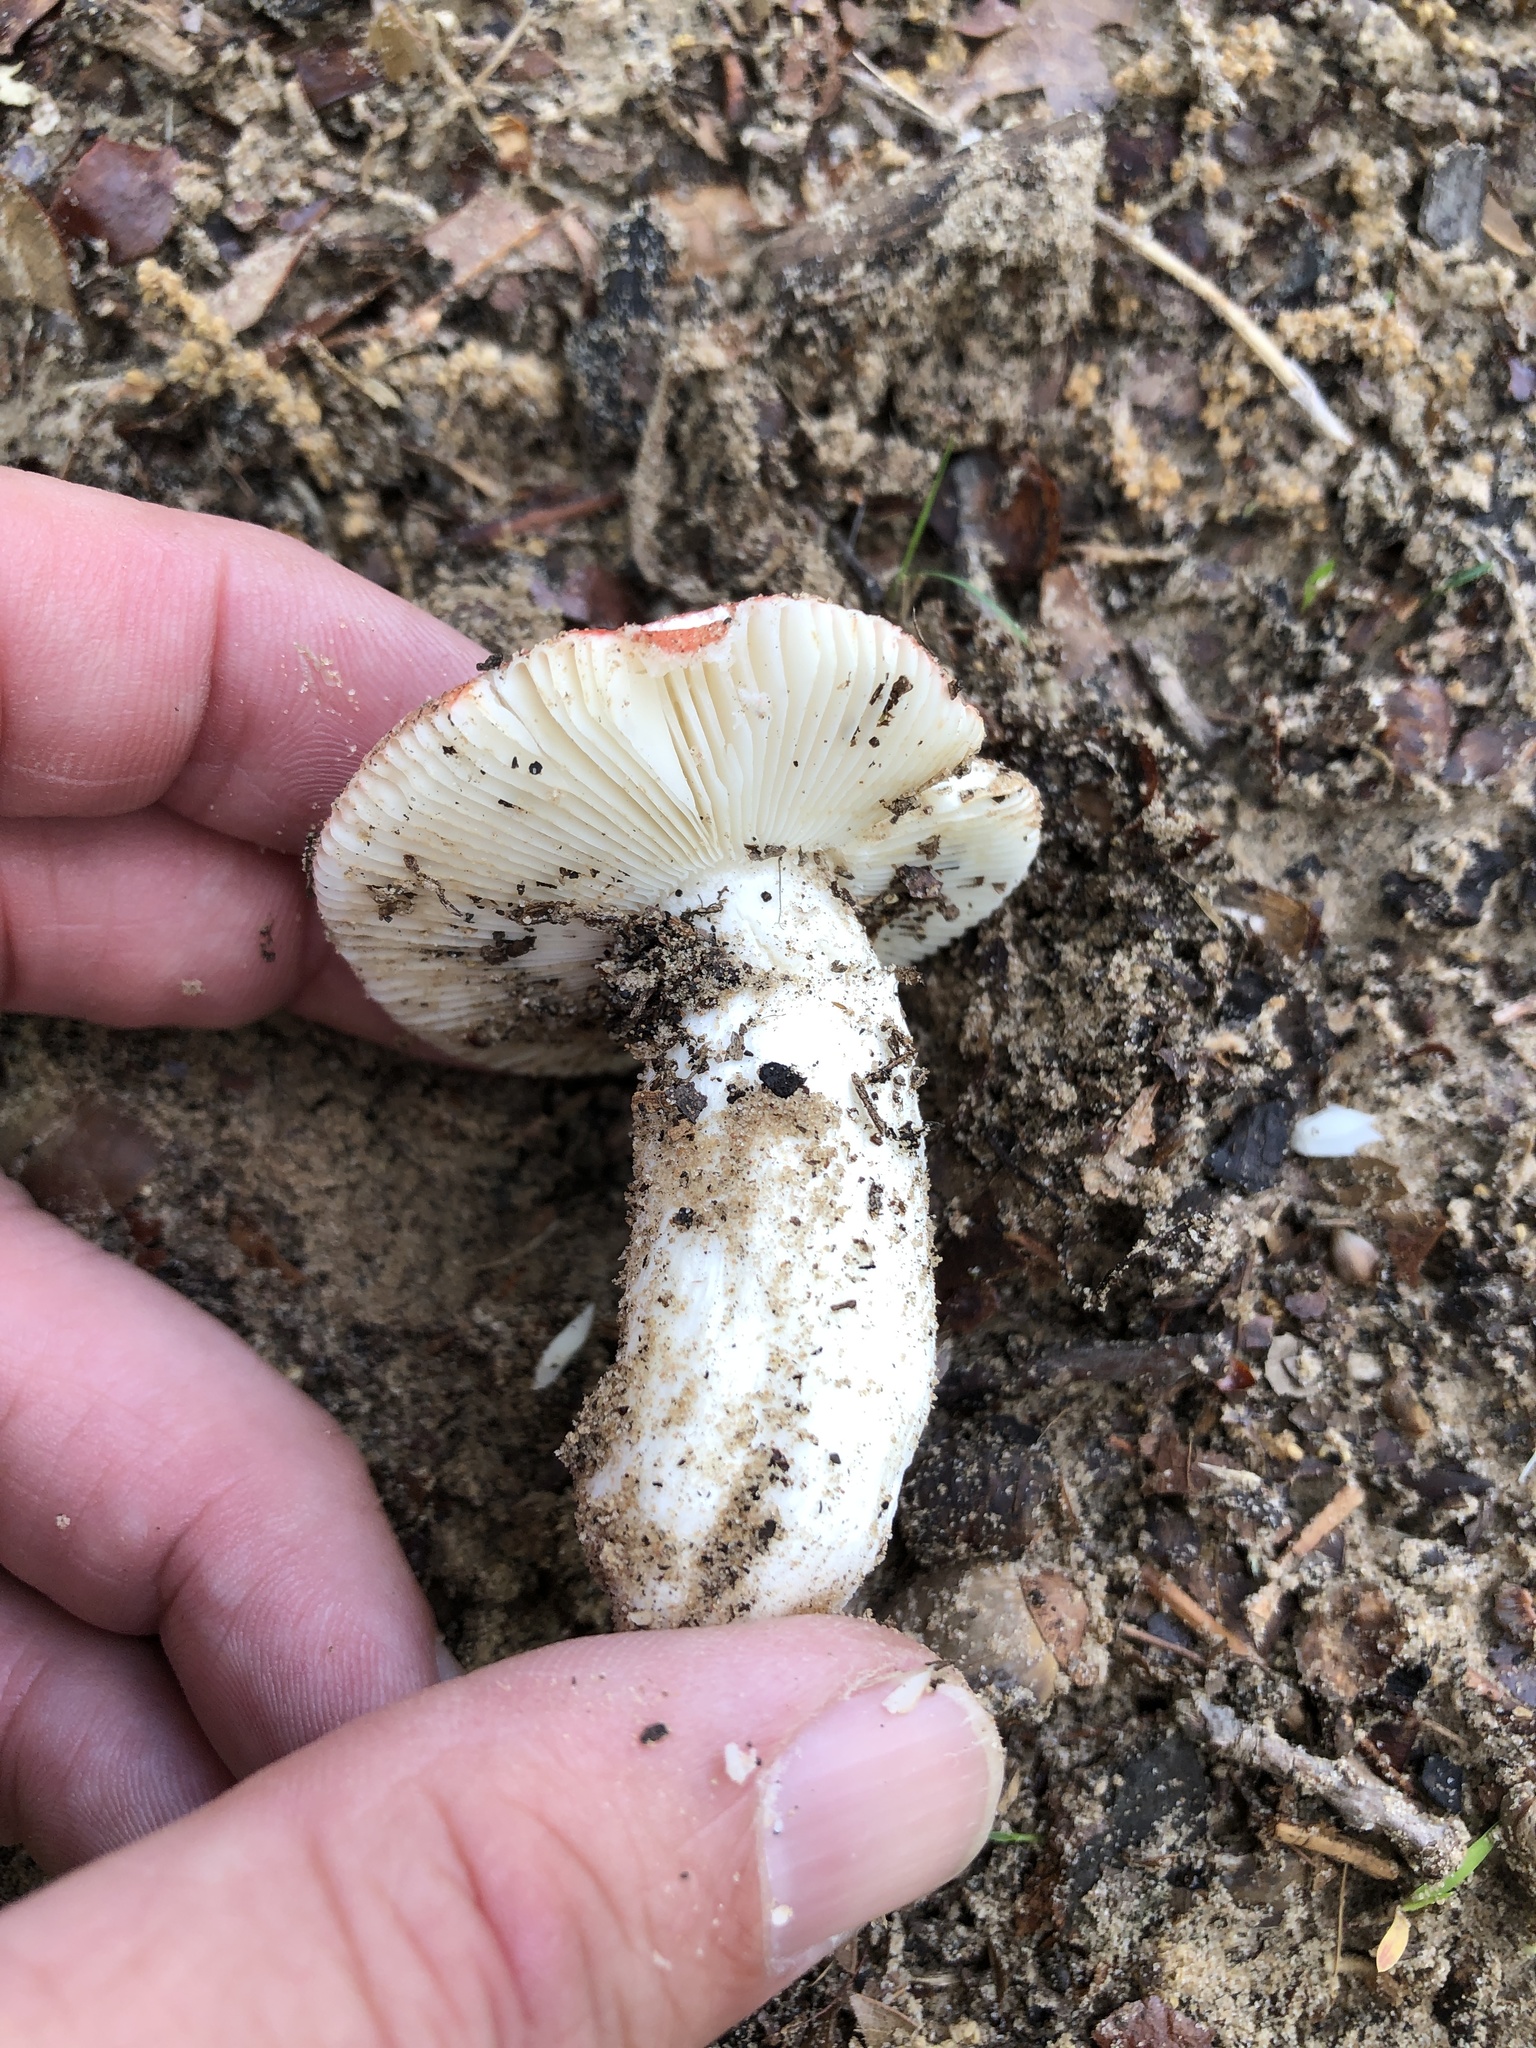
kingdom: Fungi
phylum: Basidiomycota
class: Agaricomycetes
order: Russulales
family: Russulaceae
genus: Russula
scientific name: Russula
